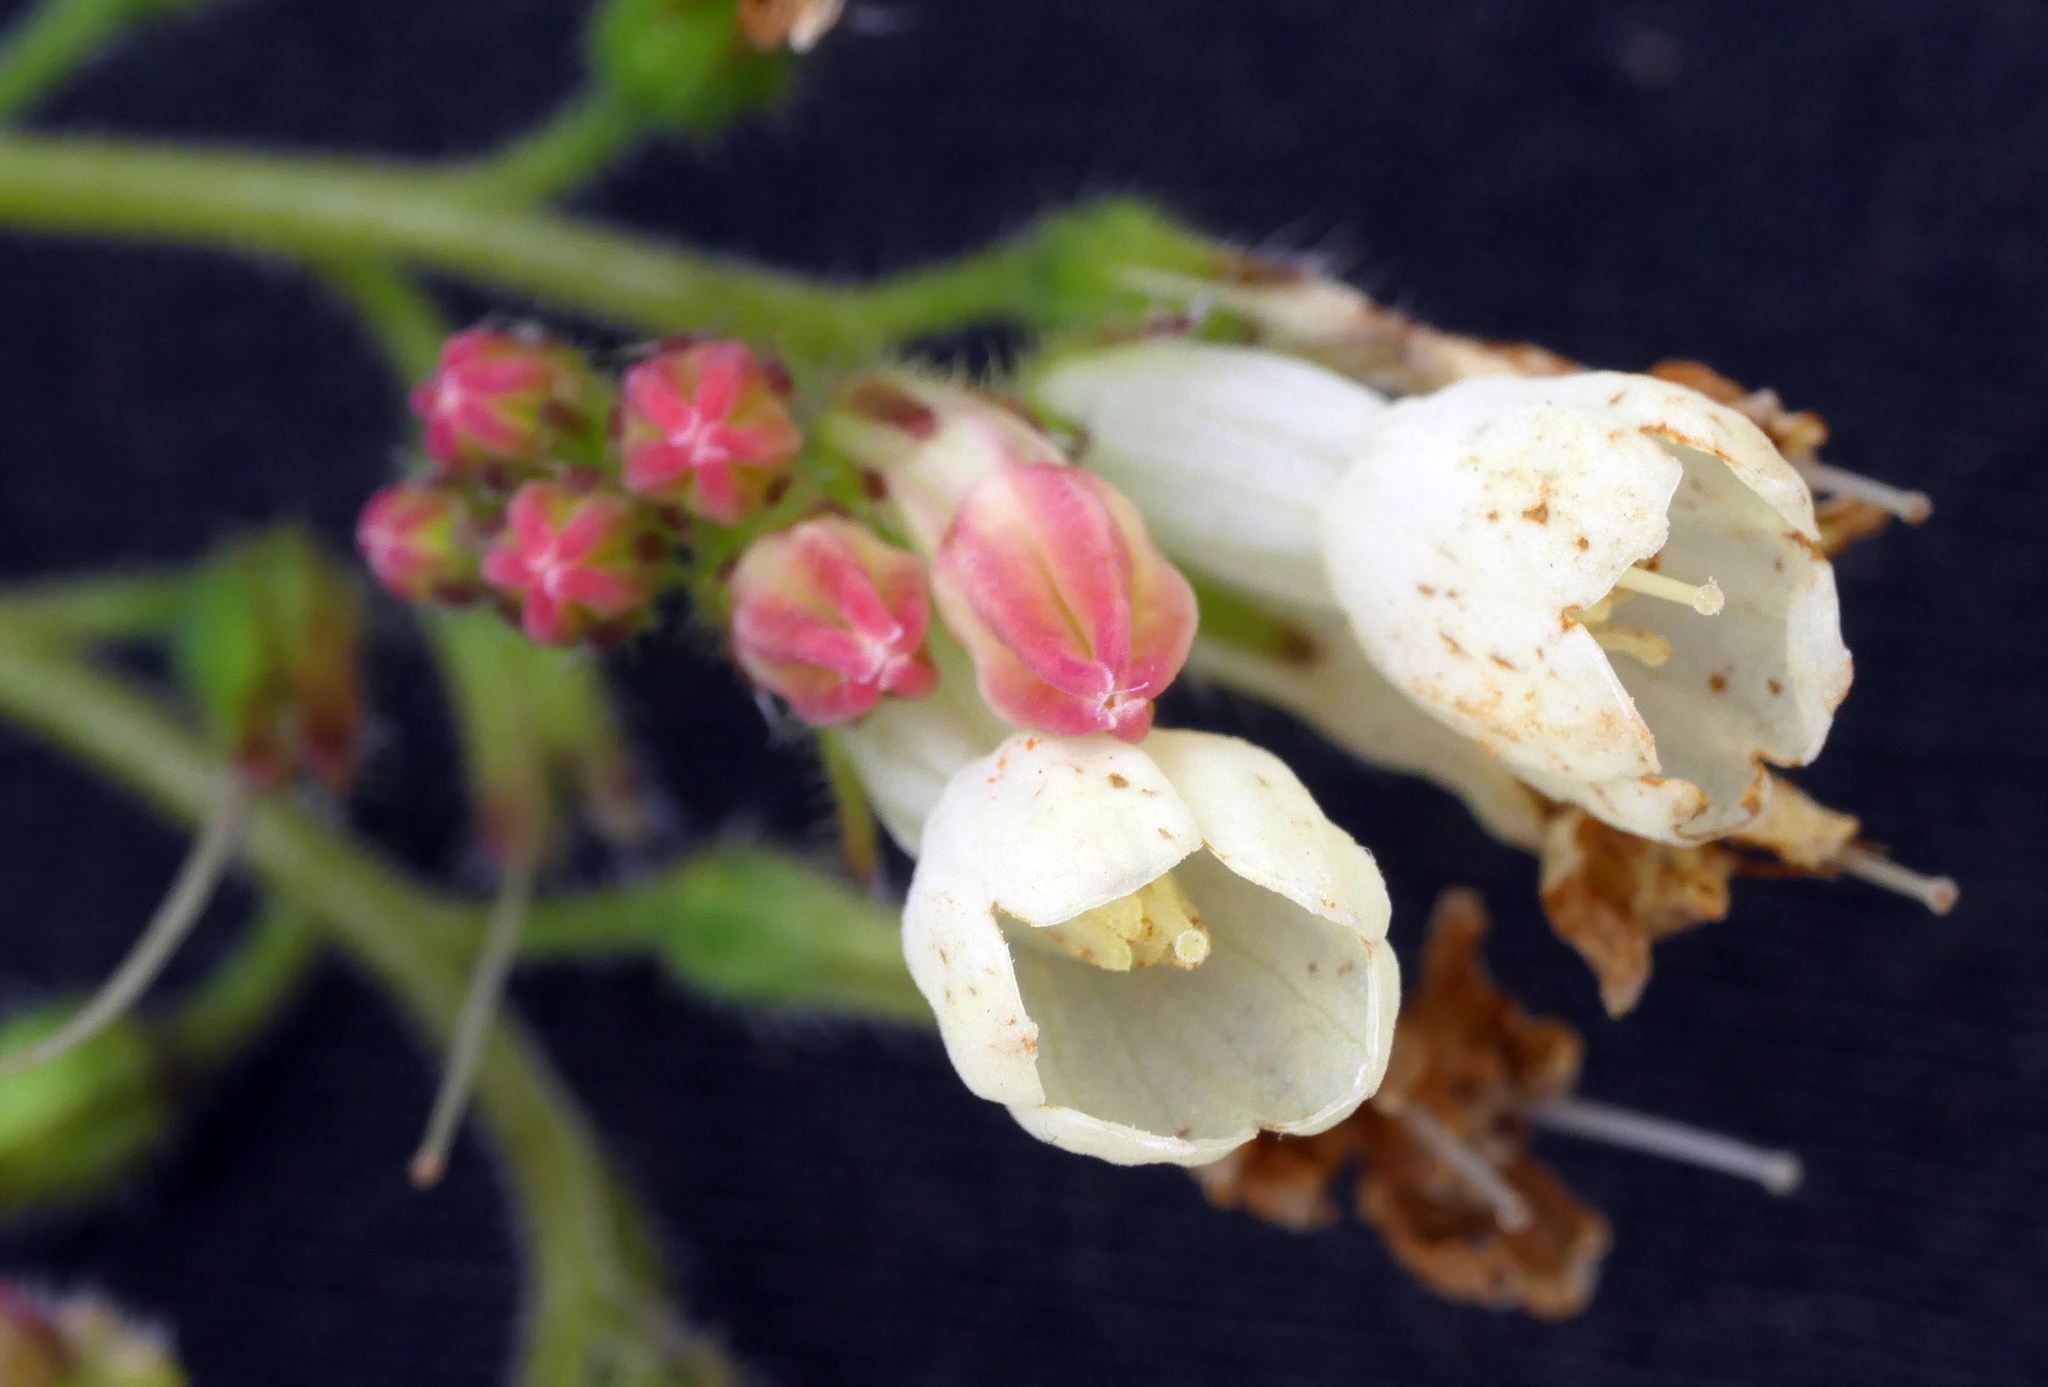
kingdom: Plantae
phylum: Tracheophyta
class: Magnoliopsida
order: Boraginales
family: Boraginaceae
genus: Symphytum
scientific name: Symphytum grandiflorum
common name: Creeping comfrey
